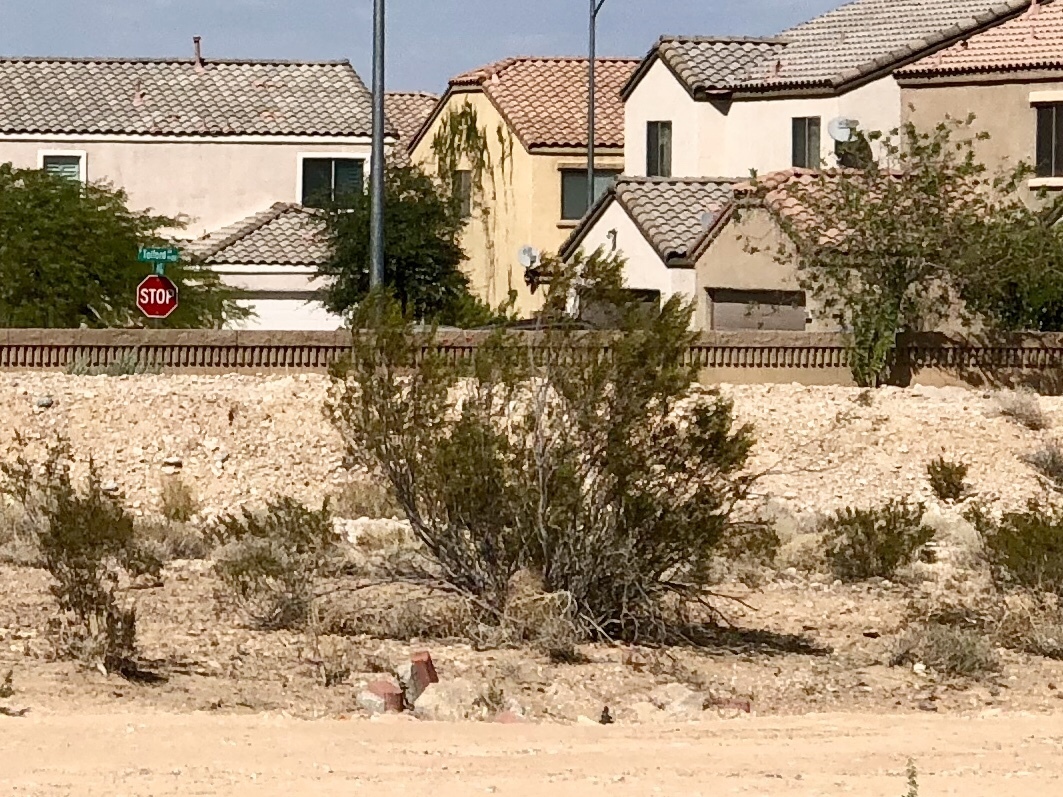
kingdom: Plantae
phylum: Tracheophyta
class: Magnoliopsida
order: Zygophyllales
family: Zygophyllaceae
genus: Larrea
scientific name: Larrea tridentata
